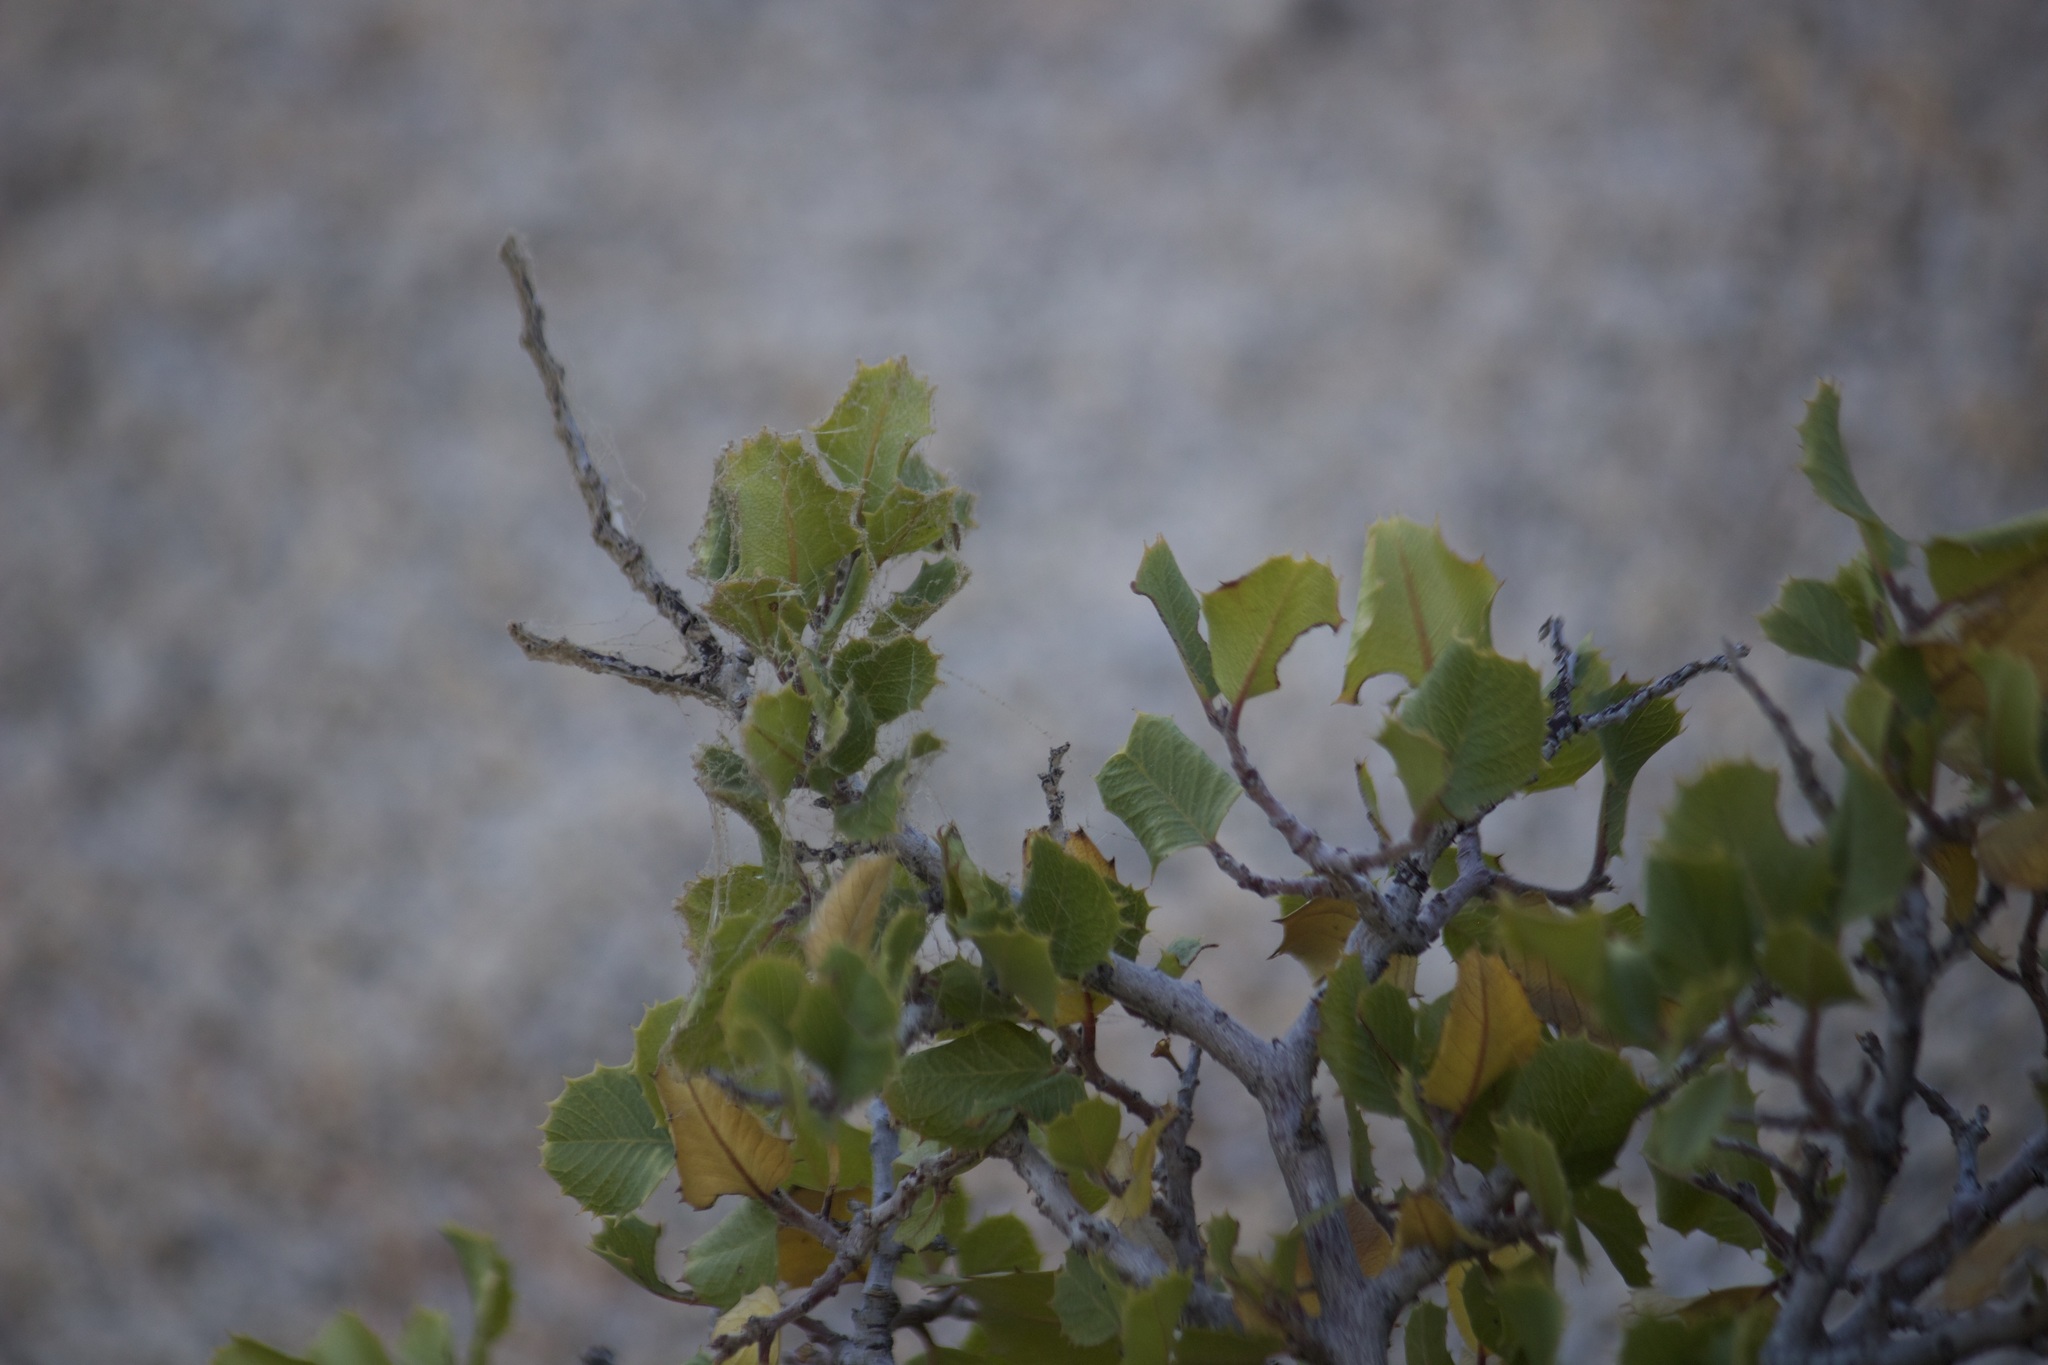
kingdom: Plantae
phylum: Tracheophyta
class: Magnoliopsida
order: Rosales
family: Rhamnaceae
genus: Endotropis
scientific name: Endotropis crocea
